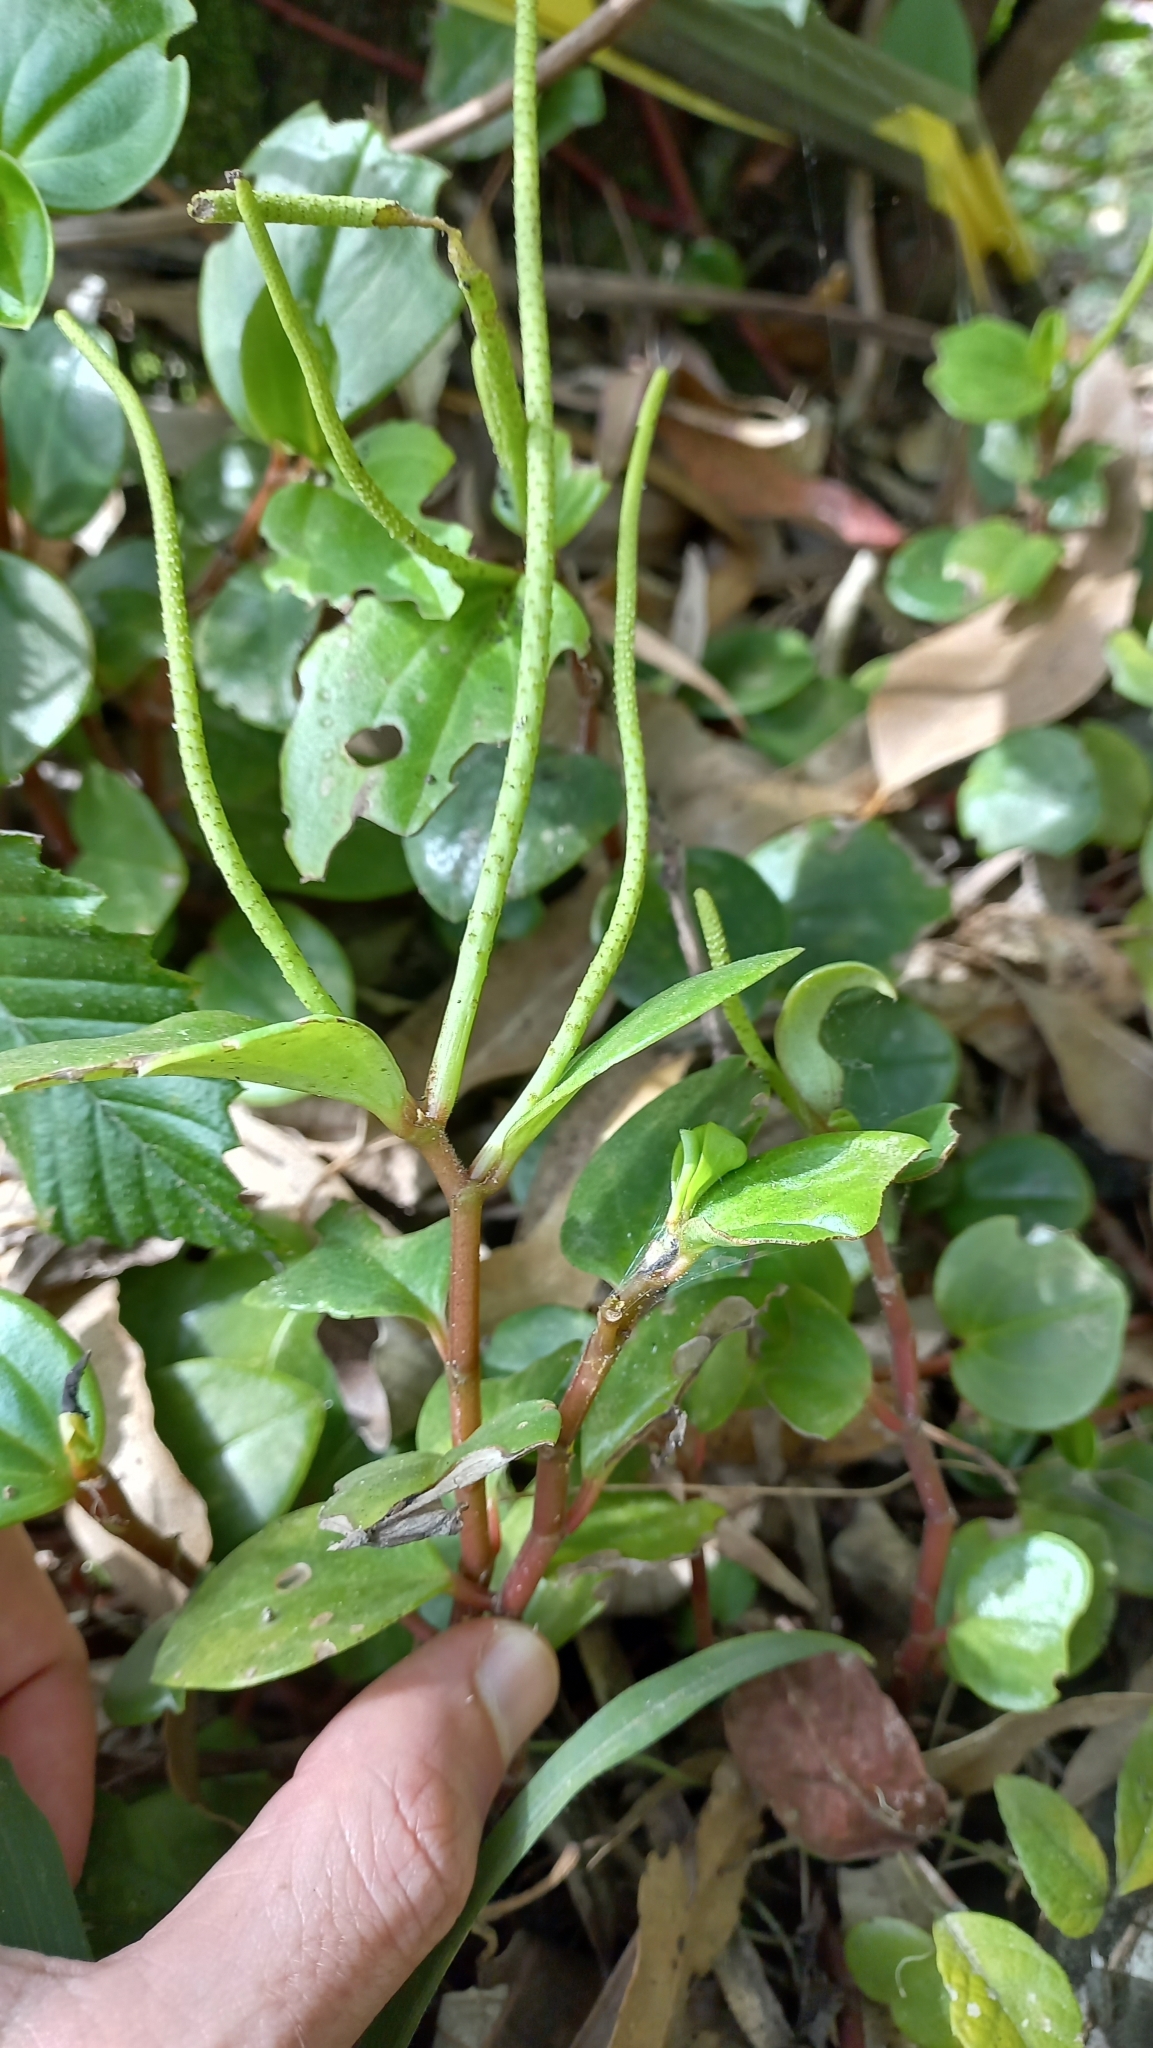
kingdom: Plantae
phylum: Tracheophyta
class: Magnoliopsida
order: Piperales
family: Piperaceae
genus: Peperomia
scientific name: Peperomia glabella
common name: Cypress peperomia
